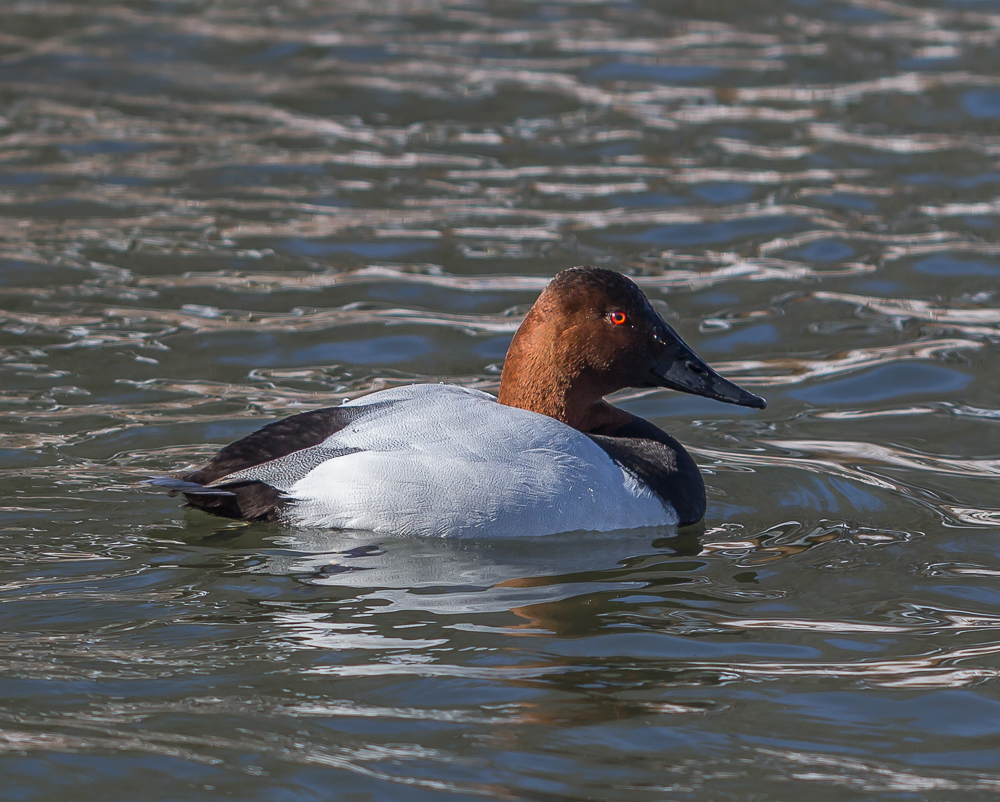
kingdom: Animalia
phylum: Chordata
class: Aves
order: Anseriformes
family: Anatidae
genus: Aythya
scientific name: Aythya valisineria
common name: Canvasback
